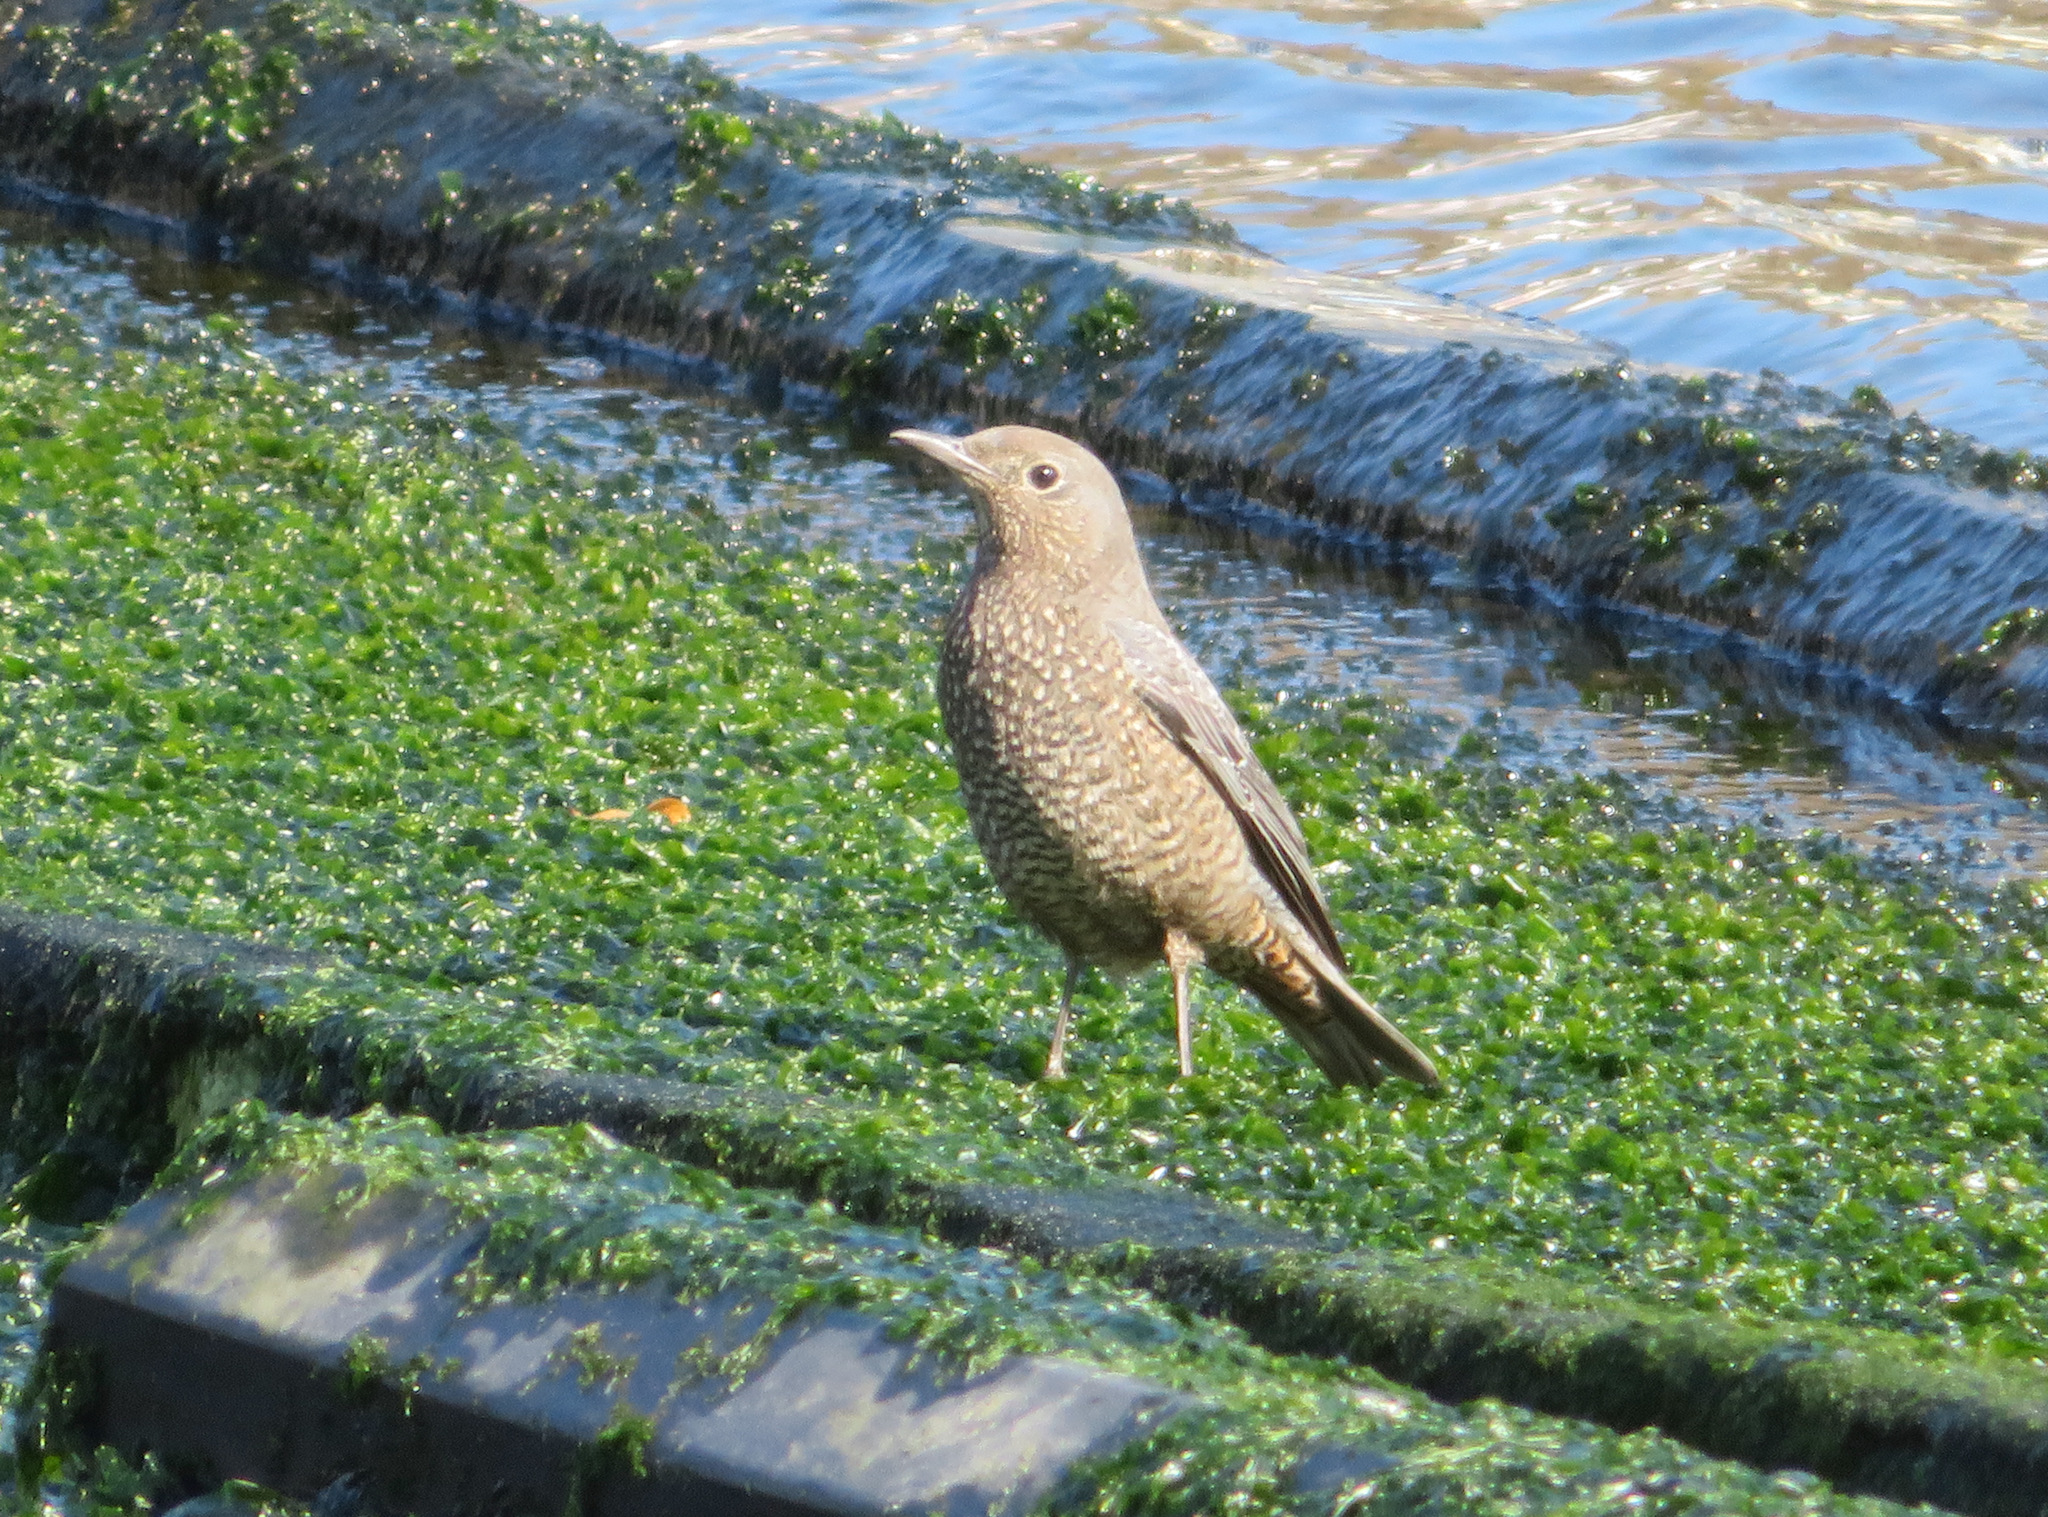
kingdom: Animalia
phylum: Chordata
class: Aves
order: Passeriformes
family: Muscicapidae
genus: Monticola
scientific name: Monticola solitarius
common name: Blue rock thrush
